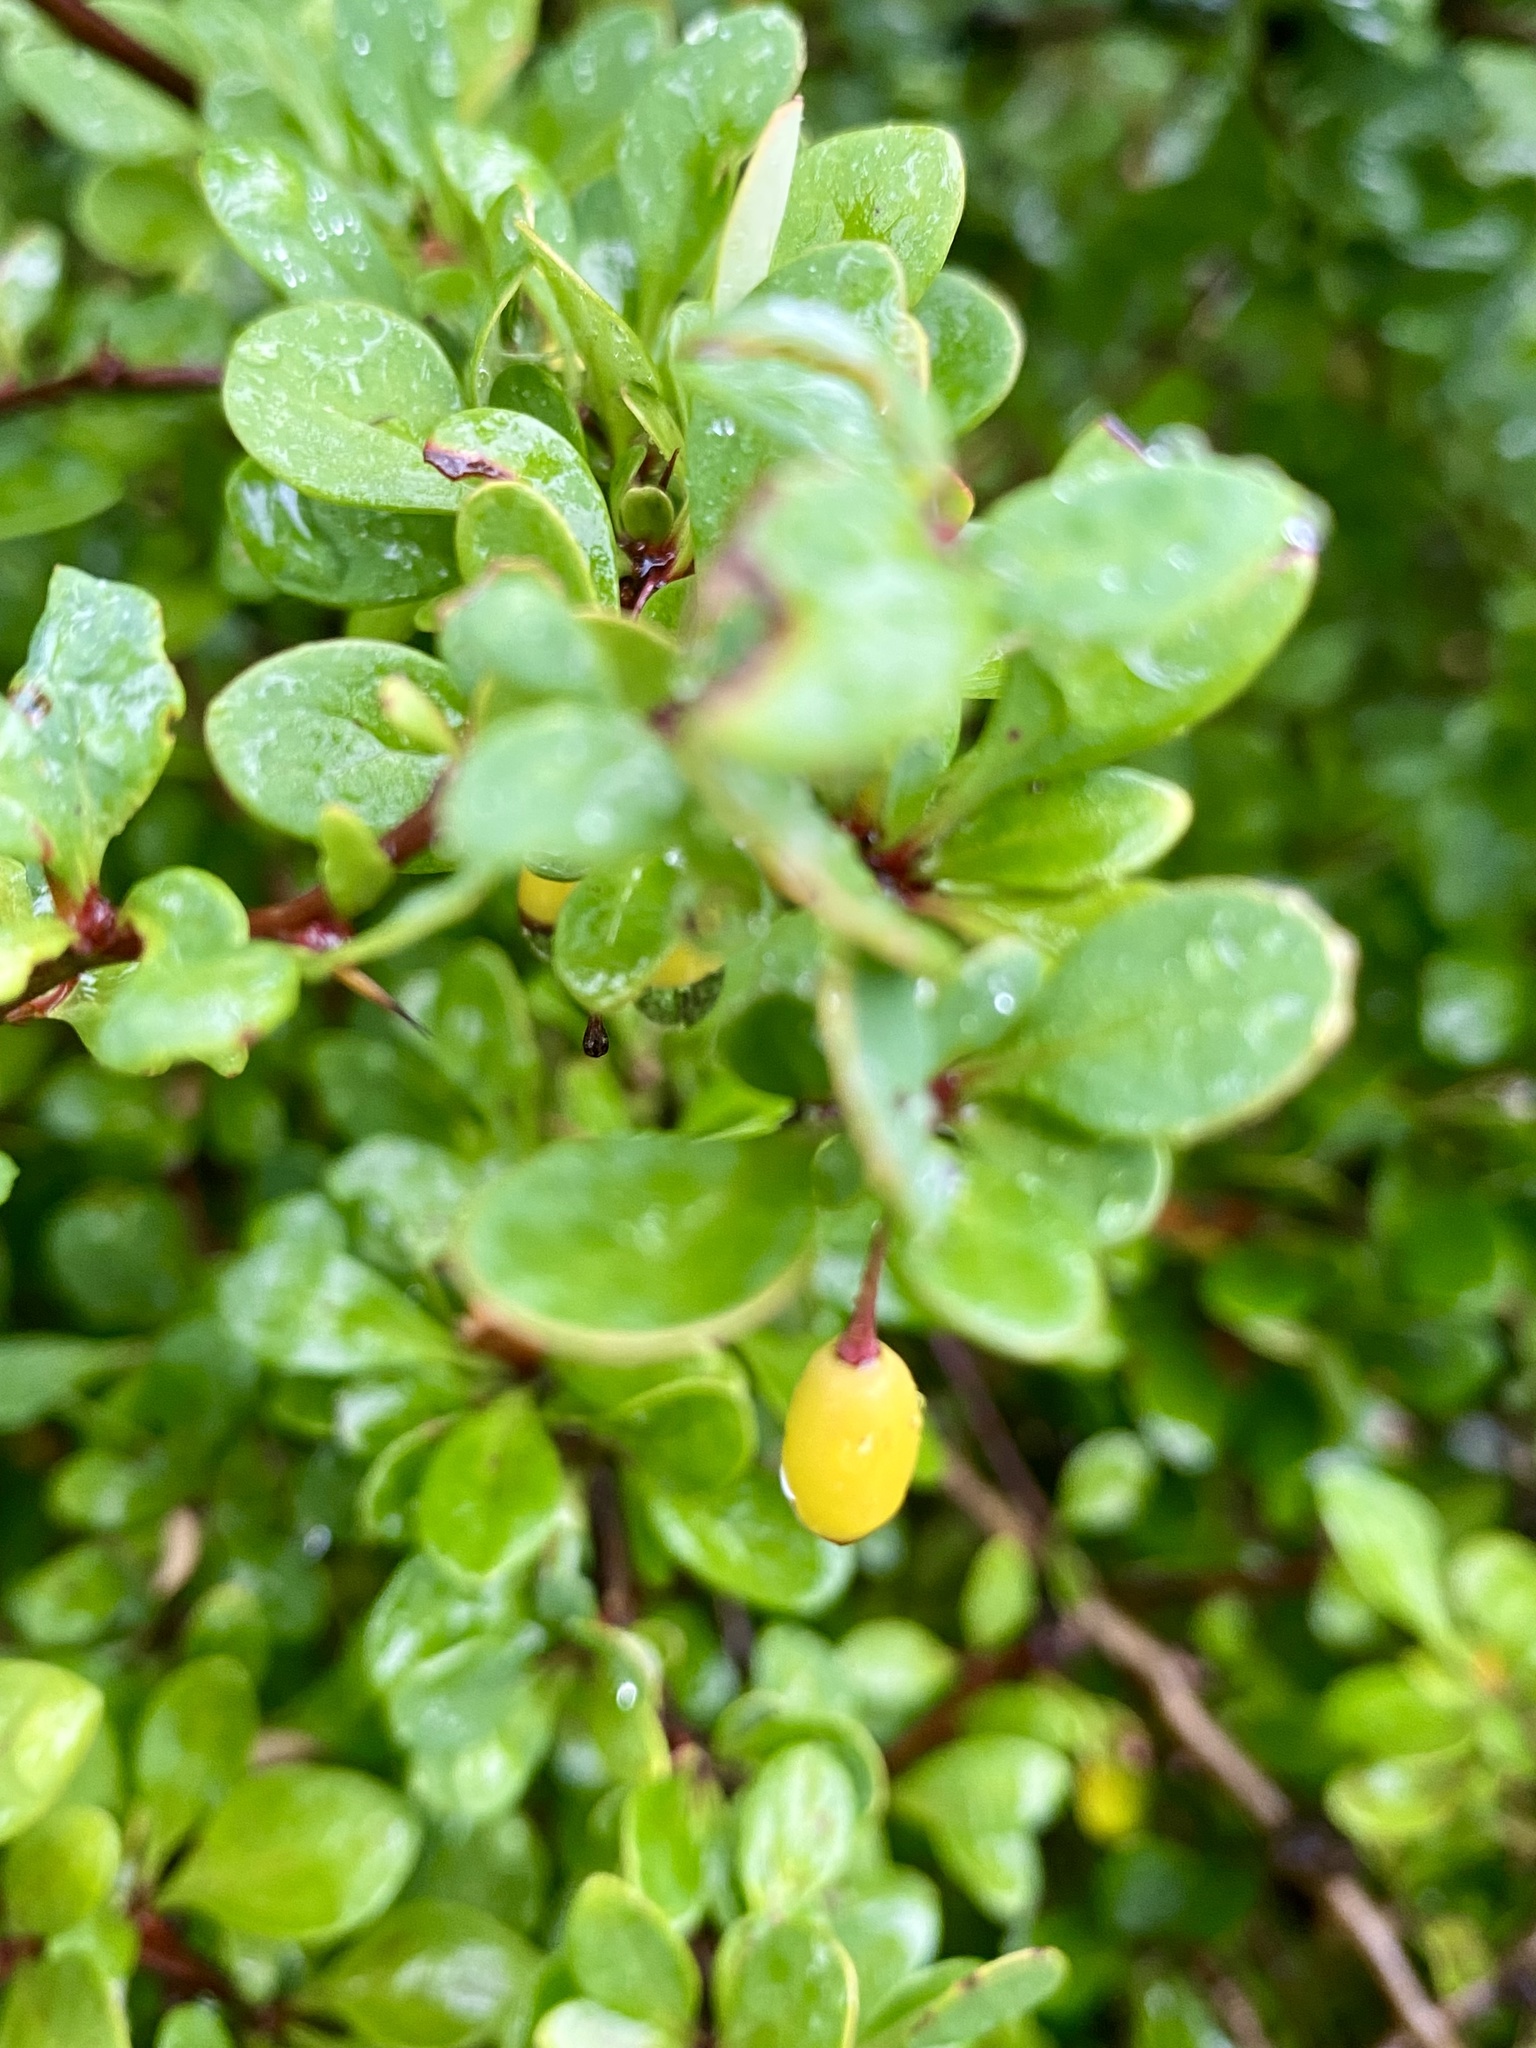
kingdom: Plantae
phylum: Tracheophyta
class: Magnoliopsida
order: Ranunculales
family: Berberidaceae
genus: Berberis
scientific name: Berberis thunbergii
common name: Japanese barberry
